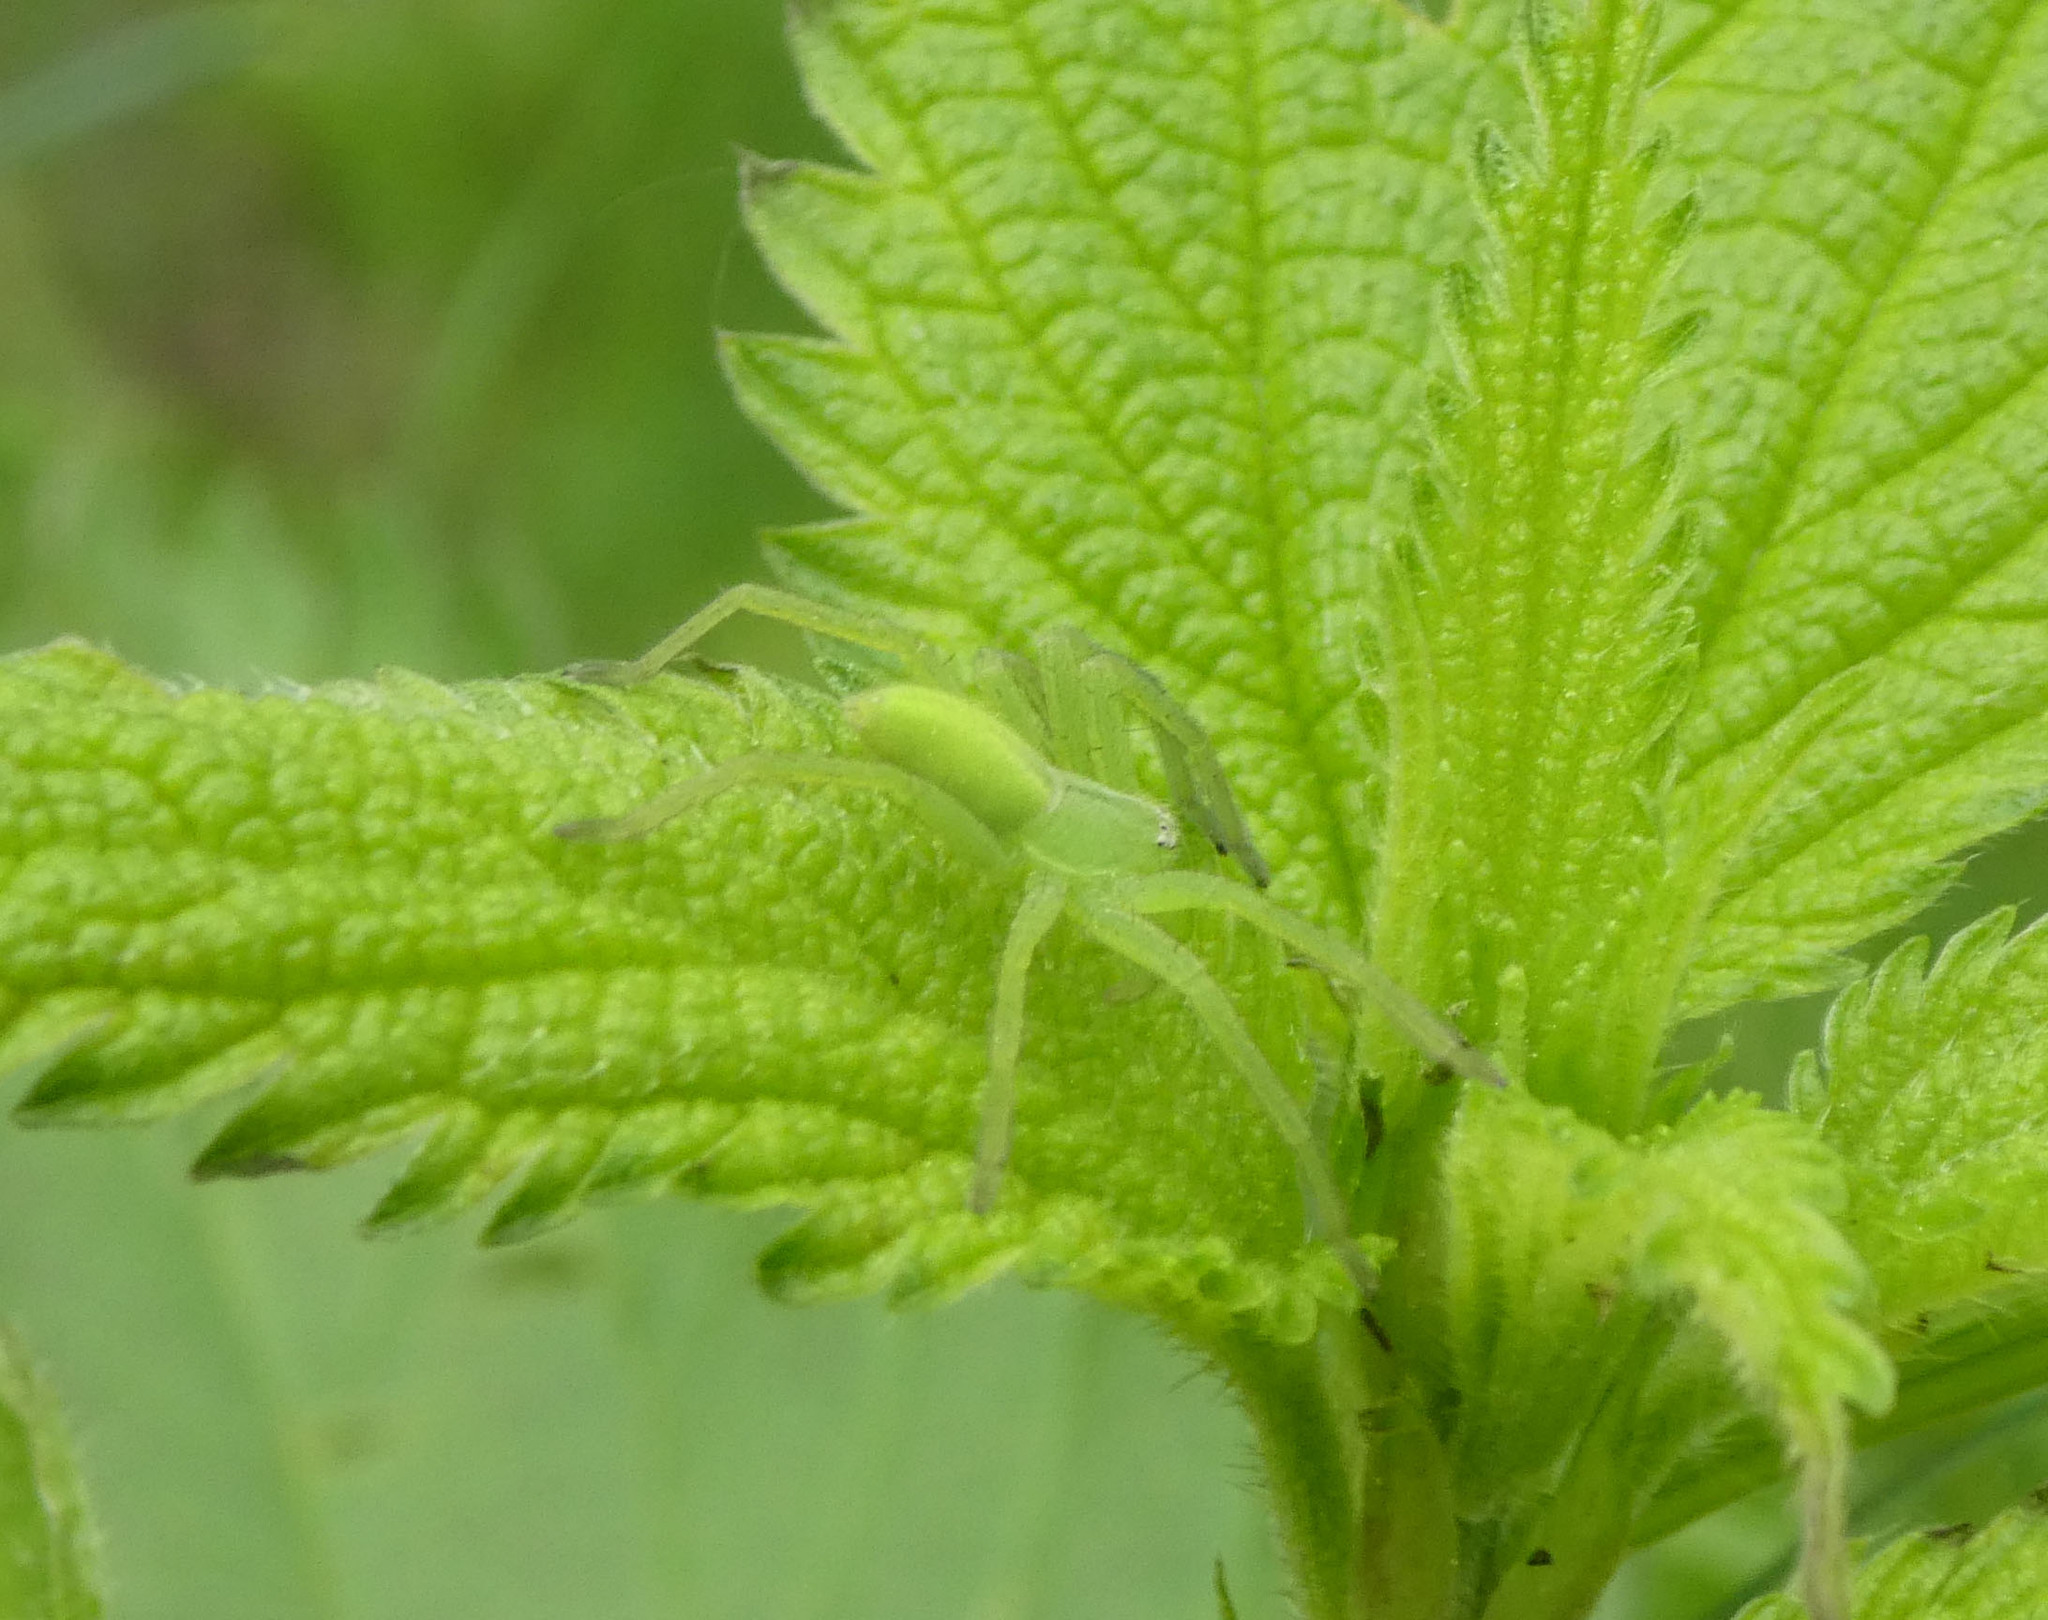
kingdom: Animalia
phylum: Arthropoda
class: Arachnida
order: Araneae
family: Sparassidae
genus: Micrommata
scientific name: Micrommata virescens
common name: Green spider
